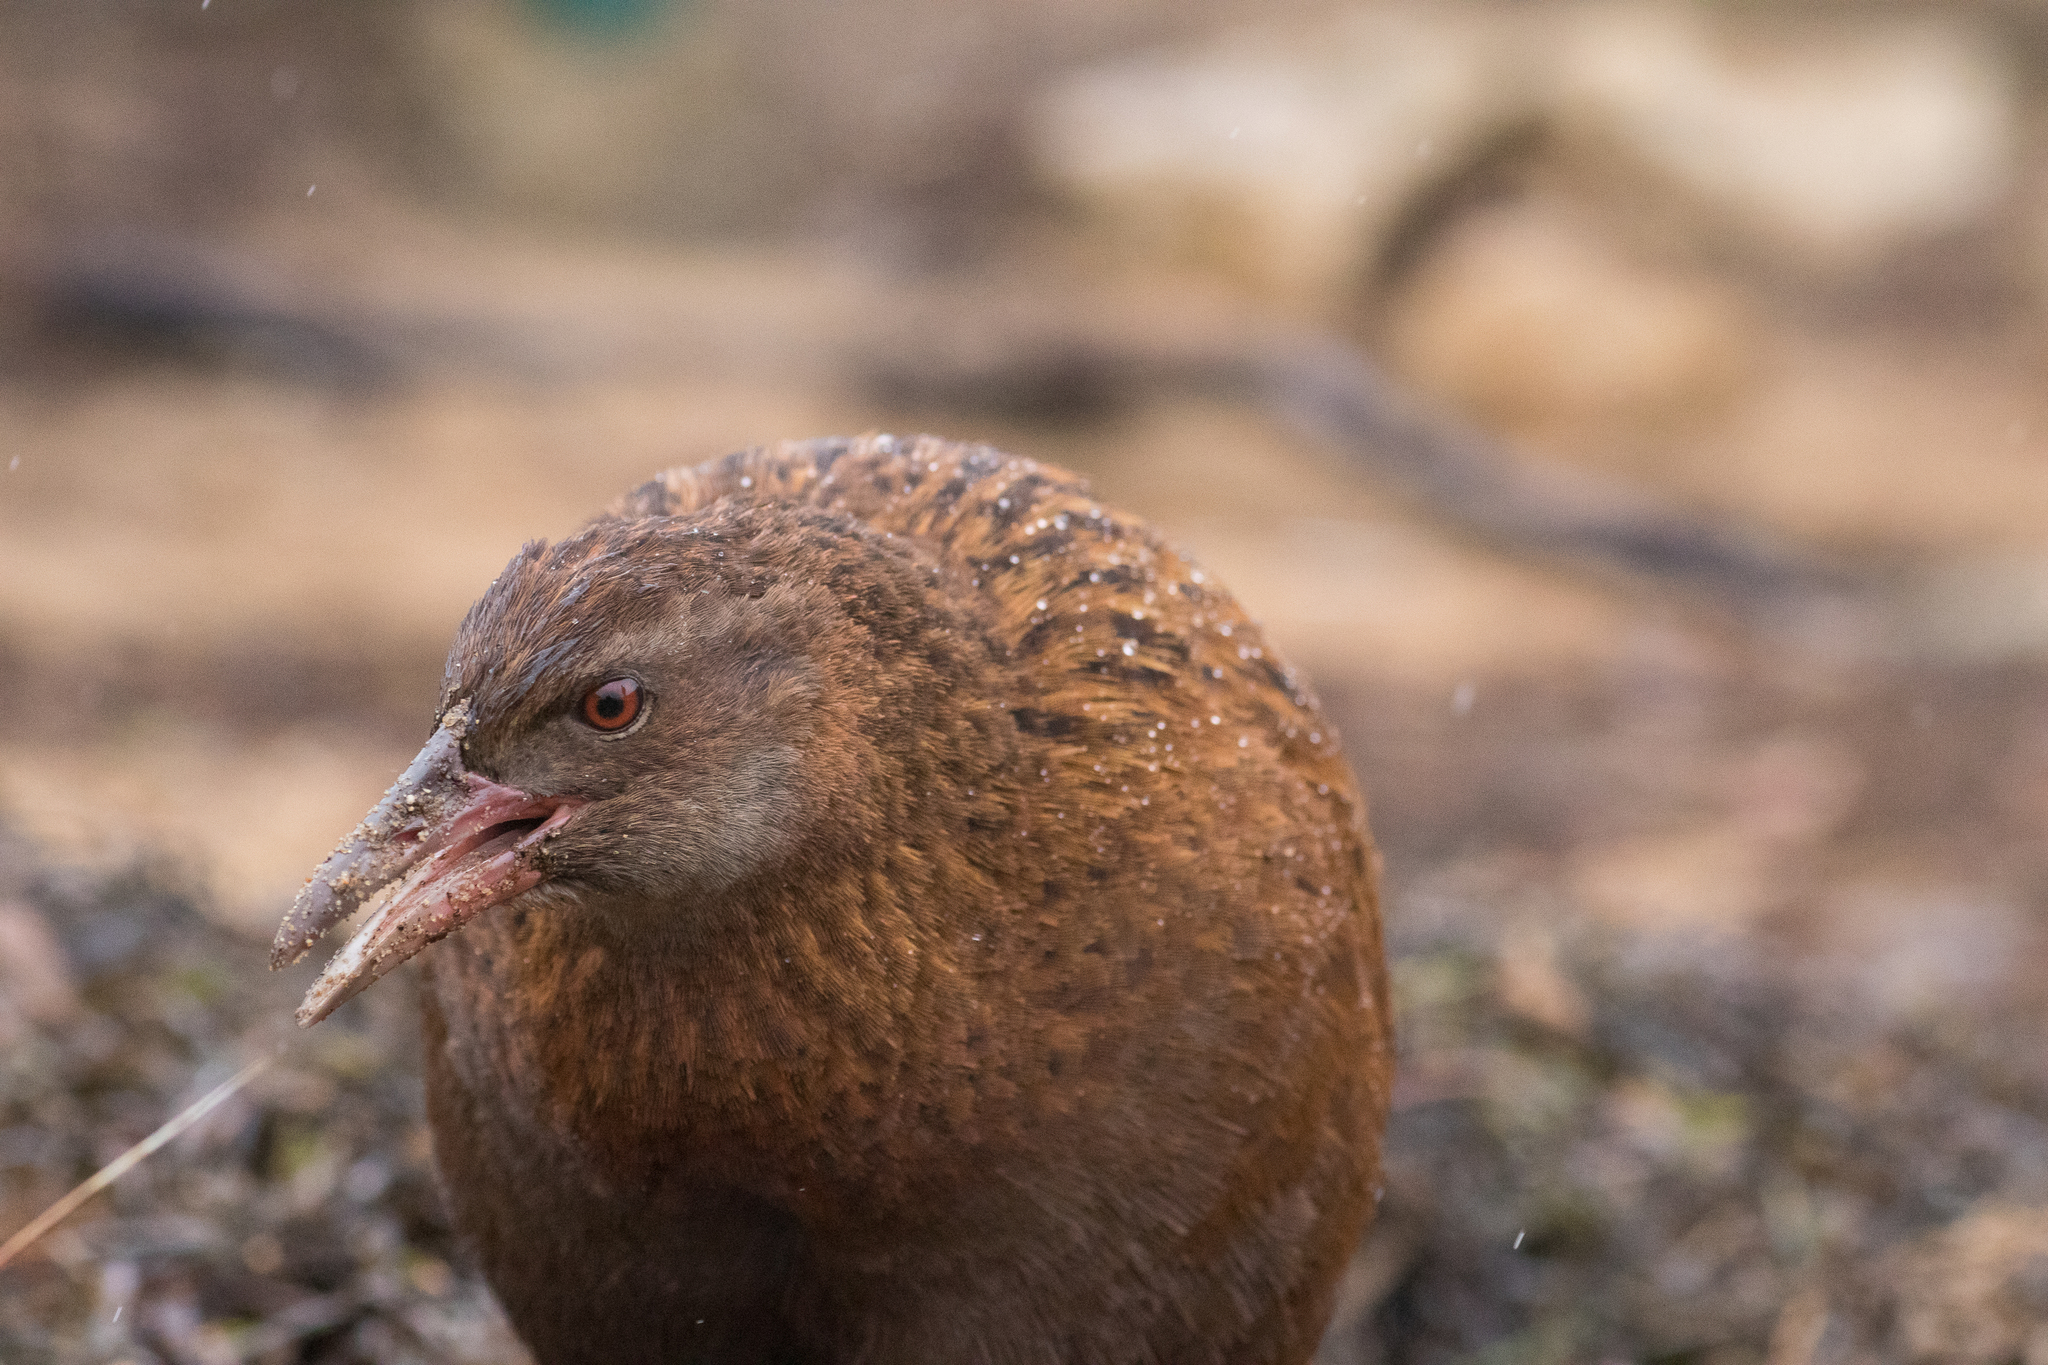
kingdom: Animalia
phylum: Chordata
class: Aves
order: Gruiformes
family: Rallidae
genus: Gallirallus
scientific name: Gallirallus australis
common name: Weka
